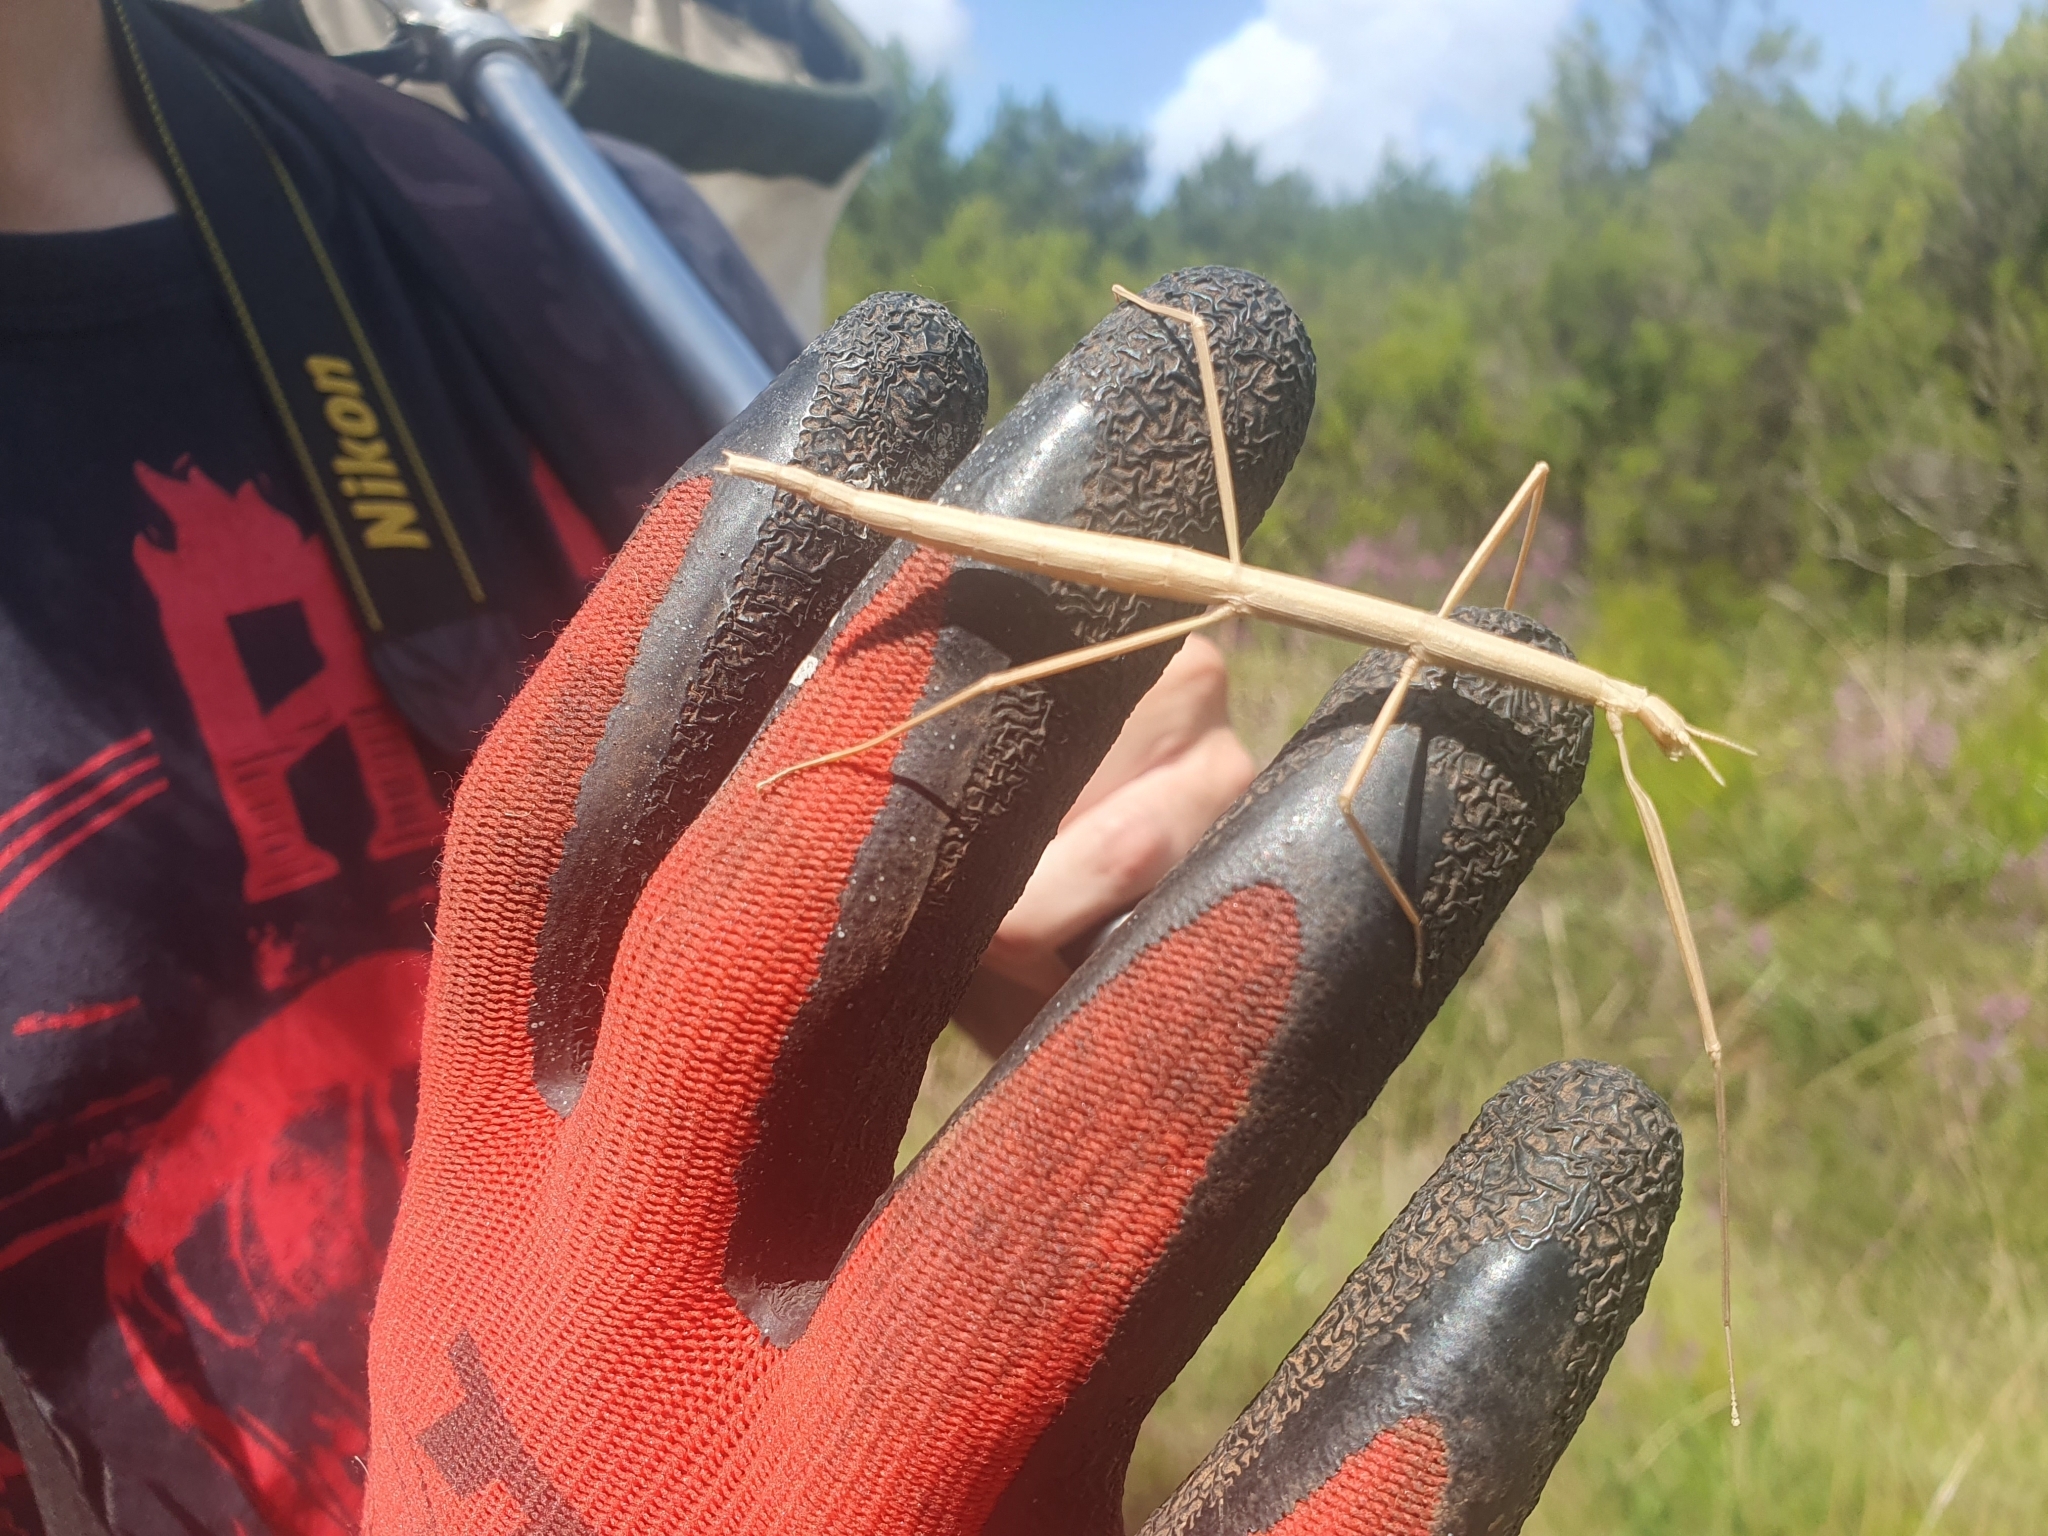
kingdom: Animalia
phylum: Arthropoda
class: Insecta
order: Phasmida
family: Bacillidae
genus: Clonopsis
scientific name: Clonopsis gallica
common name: French stick insect
